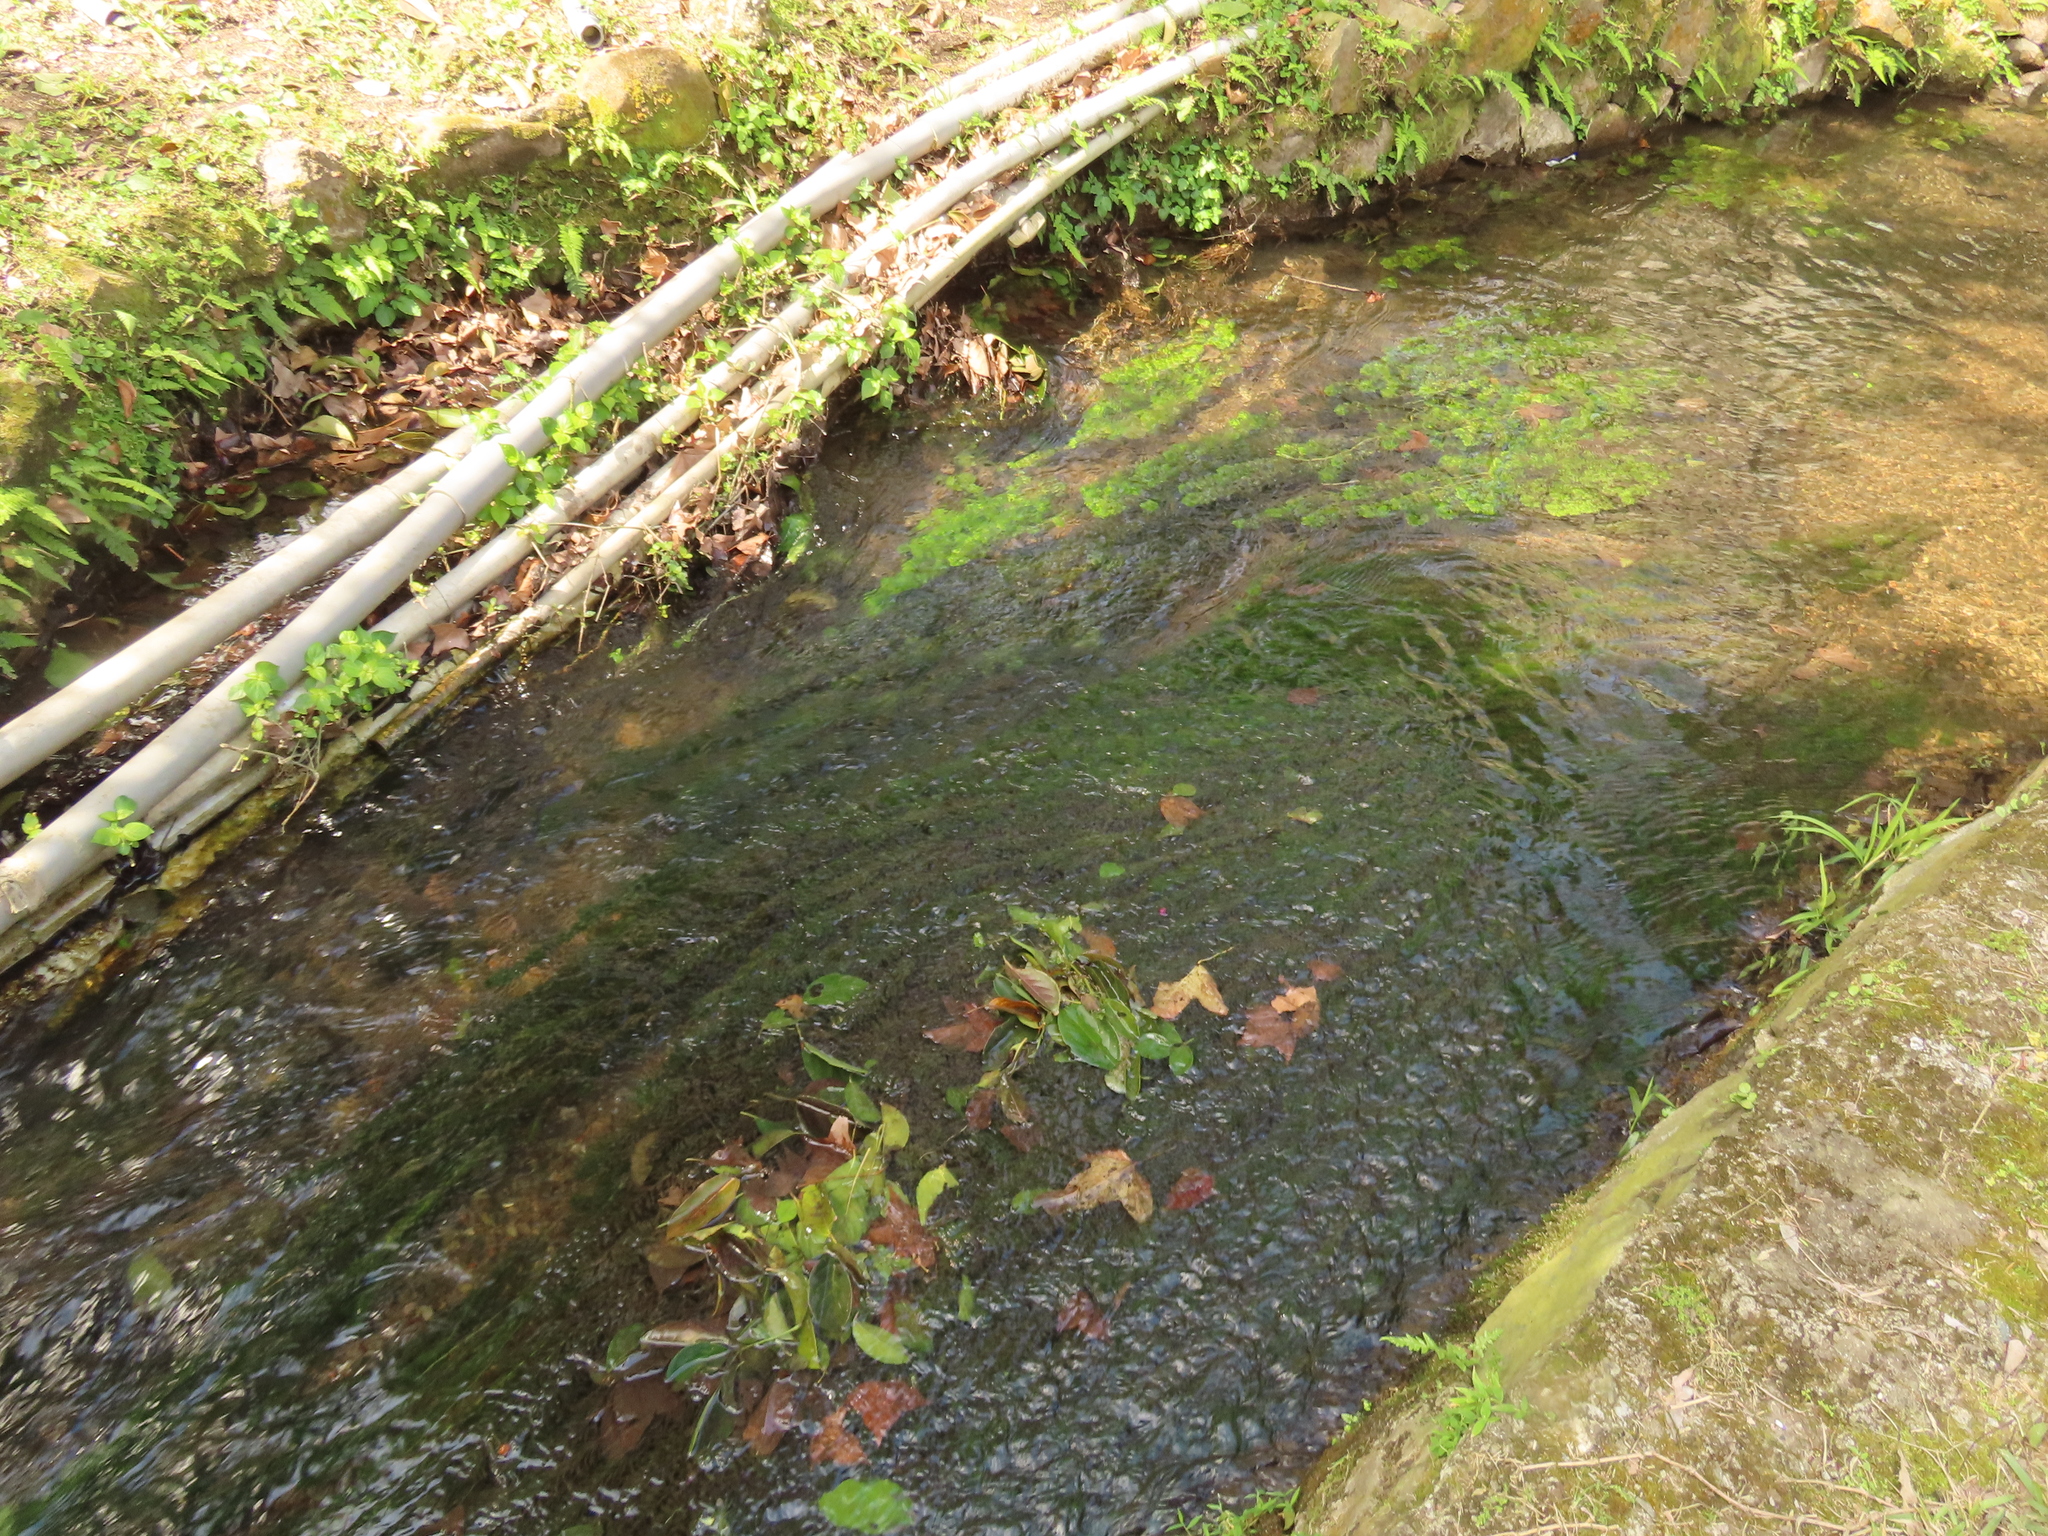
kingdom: Plantae
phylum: Tracheophyta
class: Liliopsida
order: Alismatales
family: Hydrocharitaceae
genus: Elodea
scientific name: Elodea densa
